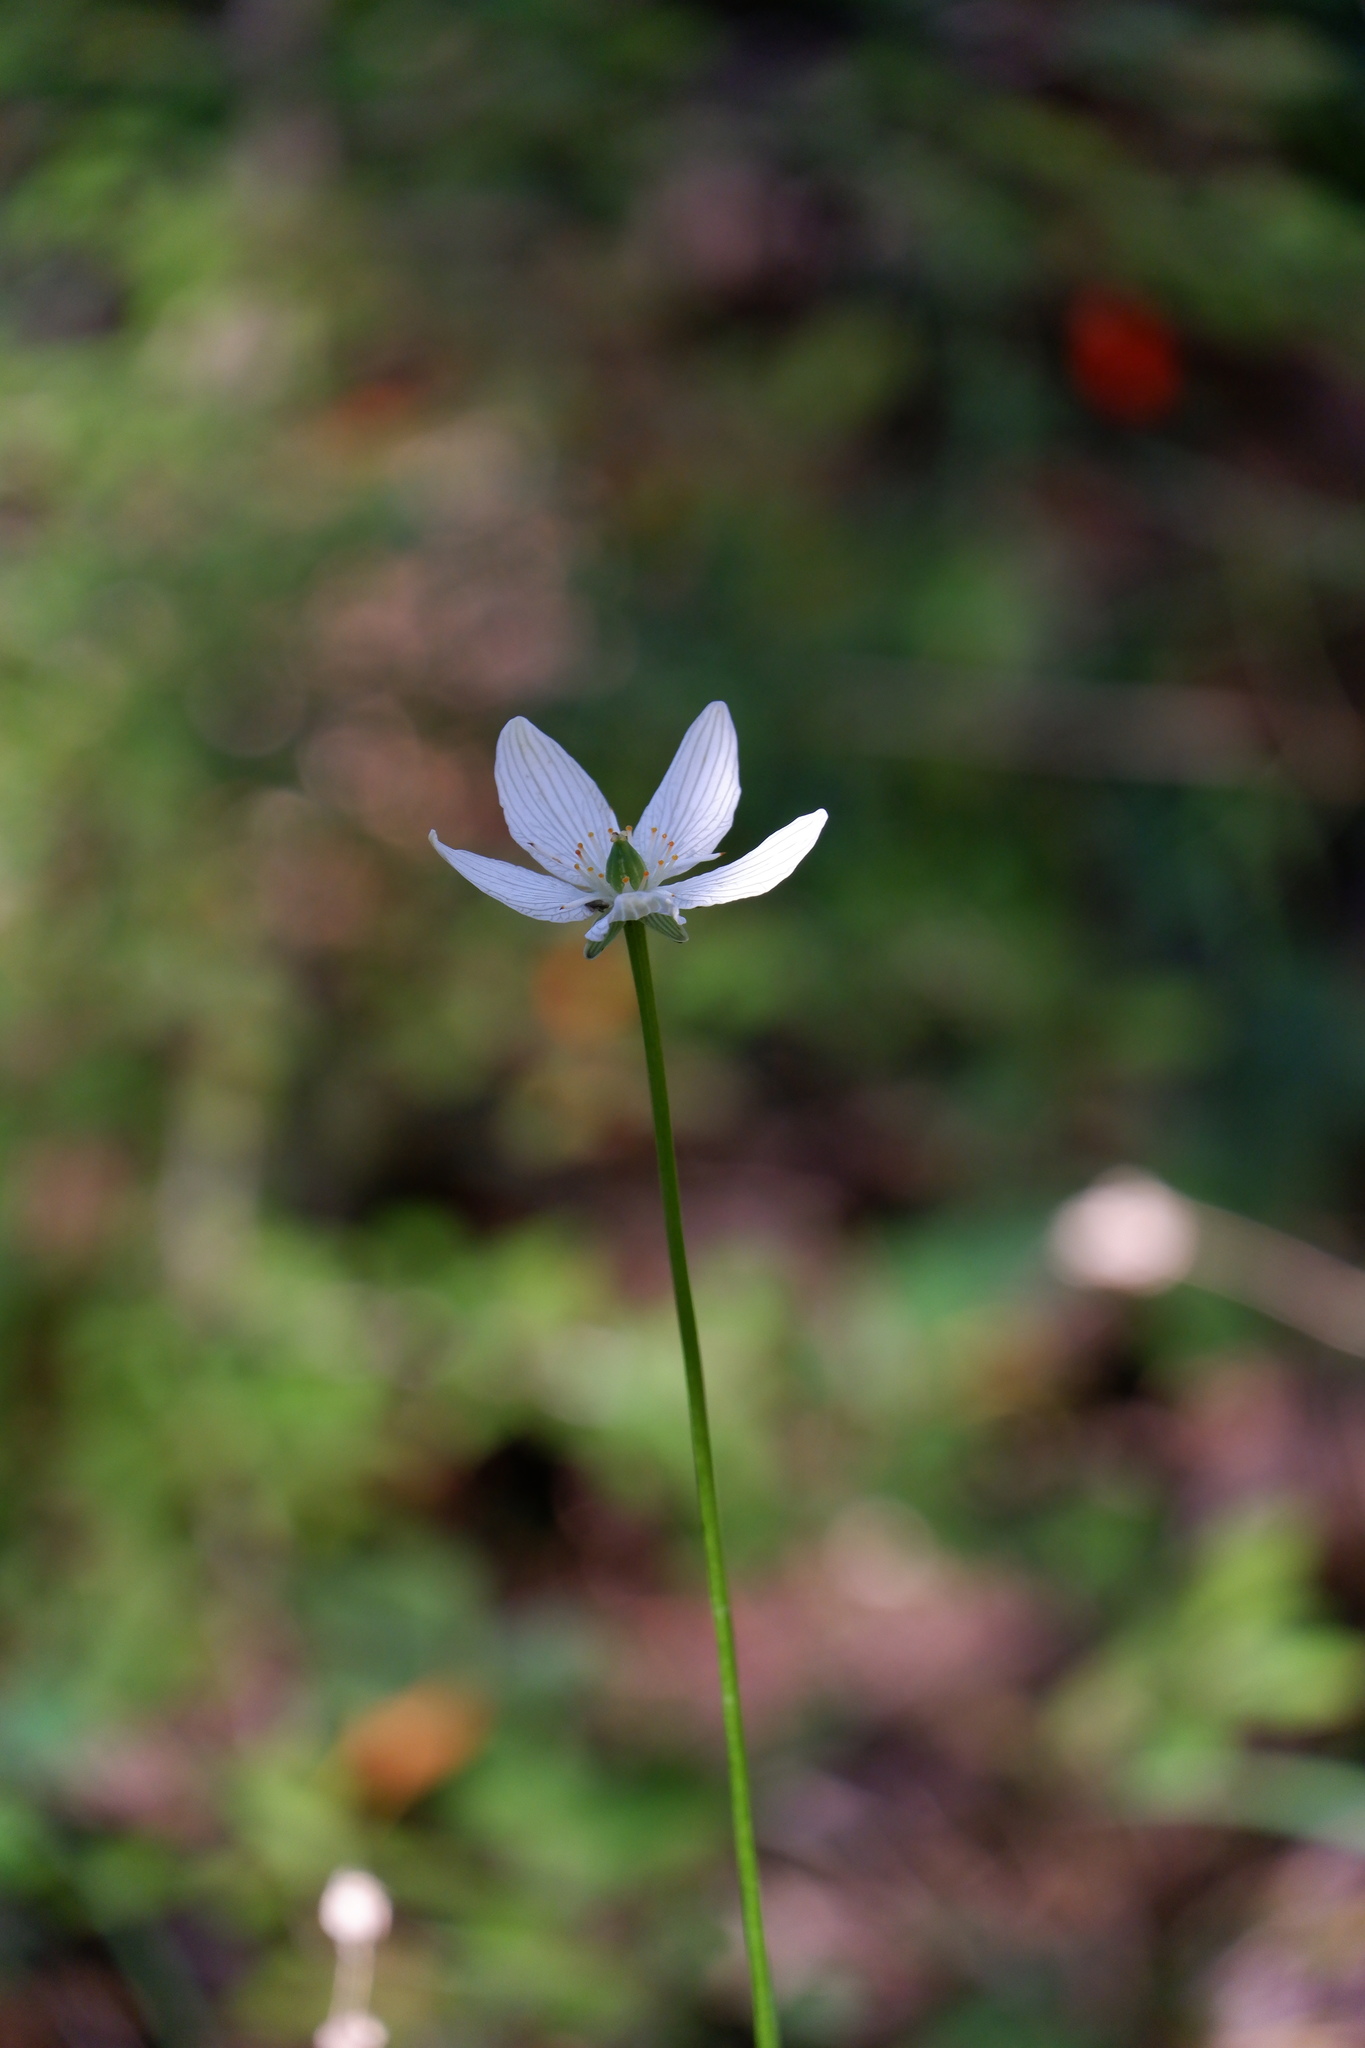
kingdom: Plantae
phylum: Tracheophyta
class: Magnoliopsida
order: Celastrales
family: Parnassiaceae
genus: Parnassia
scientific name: Parnassia glauca
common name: American grass-of-parnassus
